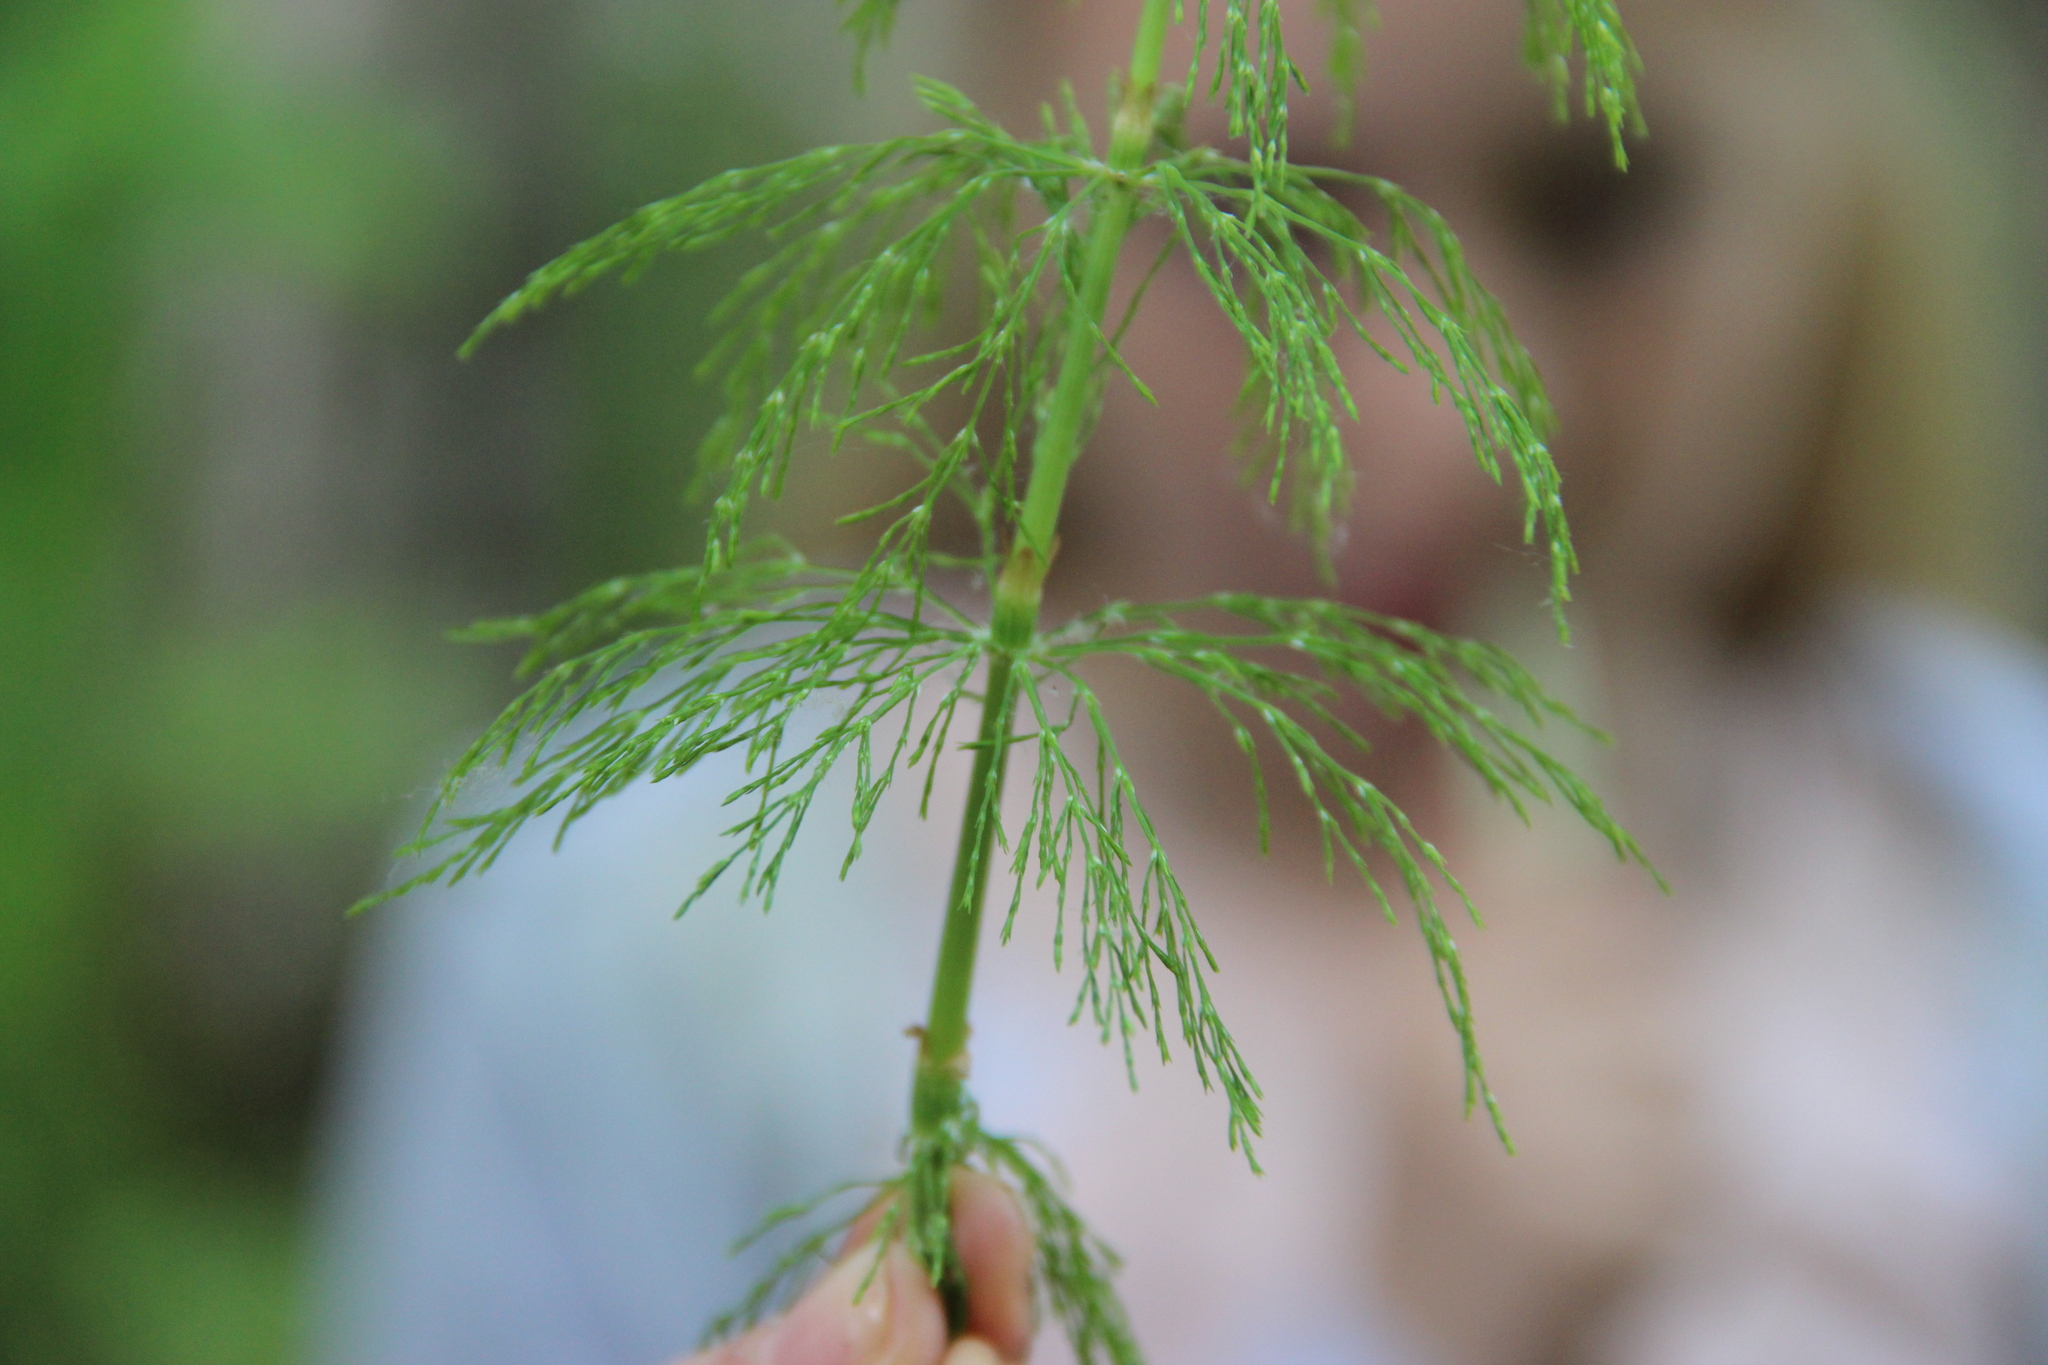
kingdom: Plantae
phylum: Tracheophyta
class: Polypodiopsida
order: Equisetales
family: Equisetaceae
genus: Equisetum
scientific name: Equisetum sylvaticum
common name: Wood horsetail
